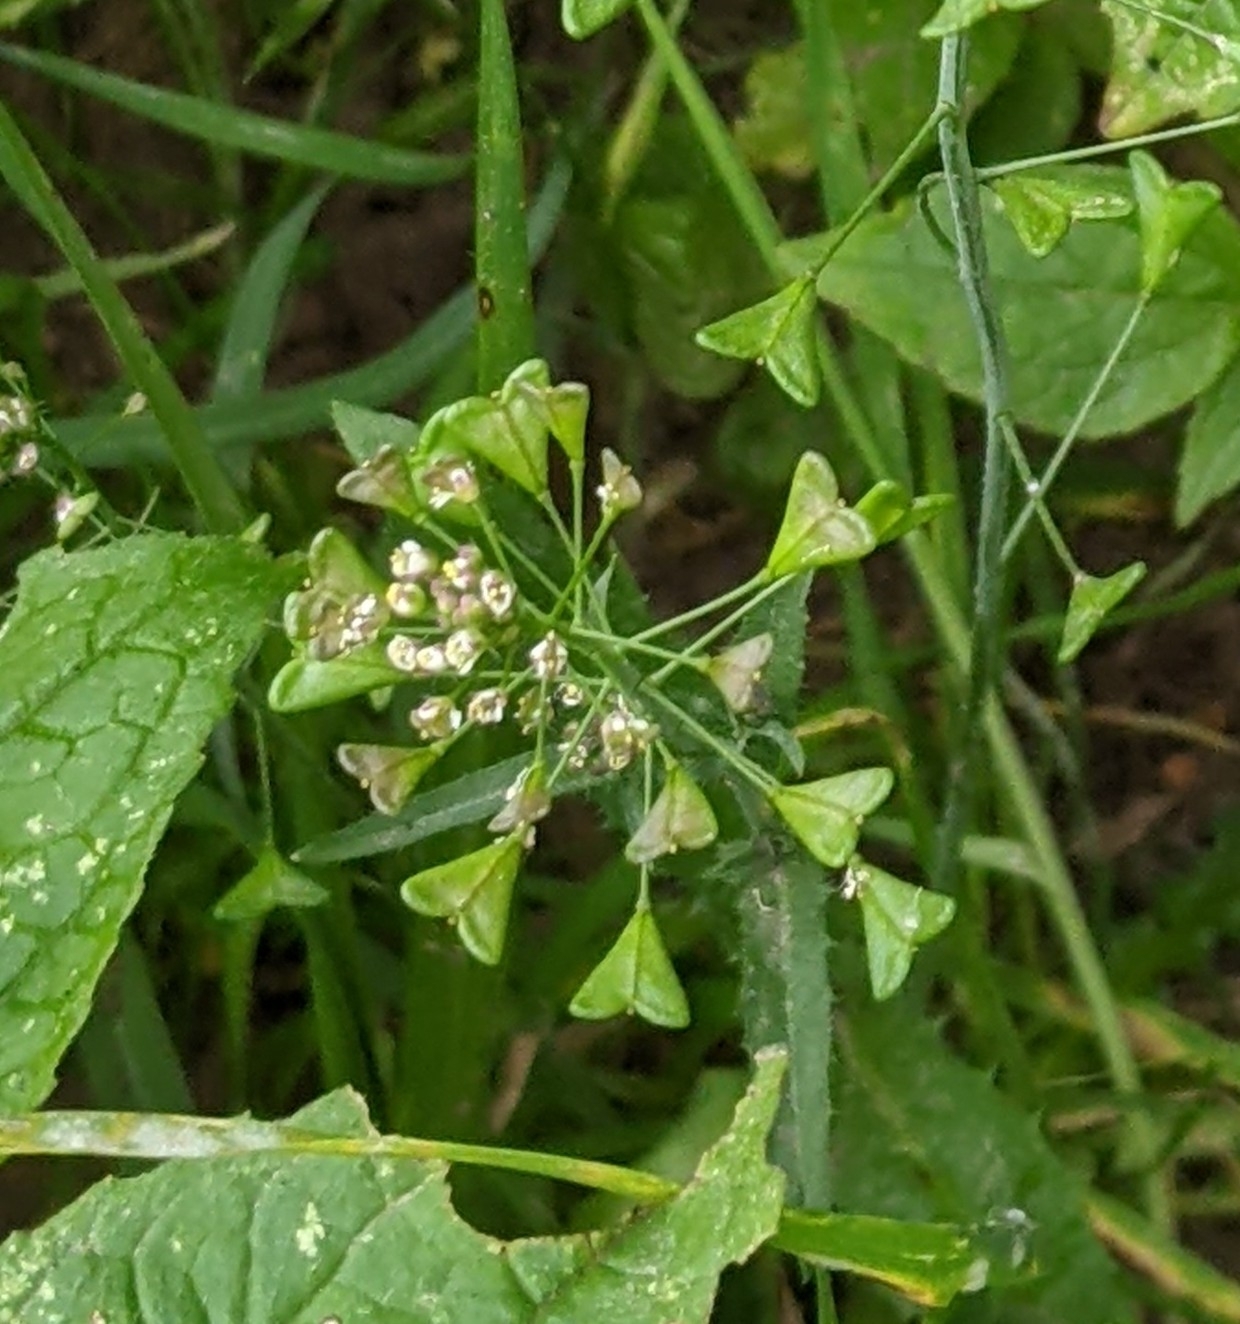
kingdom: Plantae
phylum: Tracheophyta
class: Magnoliopsida
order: Brassicales
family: Brassicaceae
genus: Capsella
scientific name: Capsella bursa-pastoris
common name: Shepherd's purse
